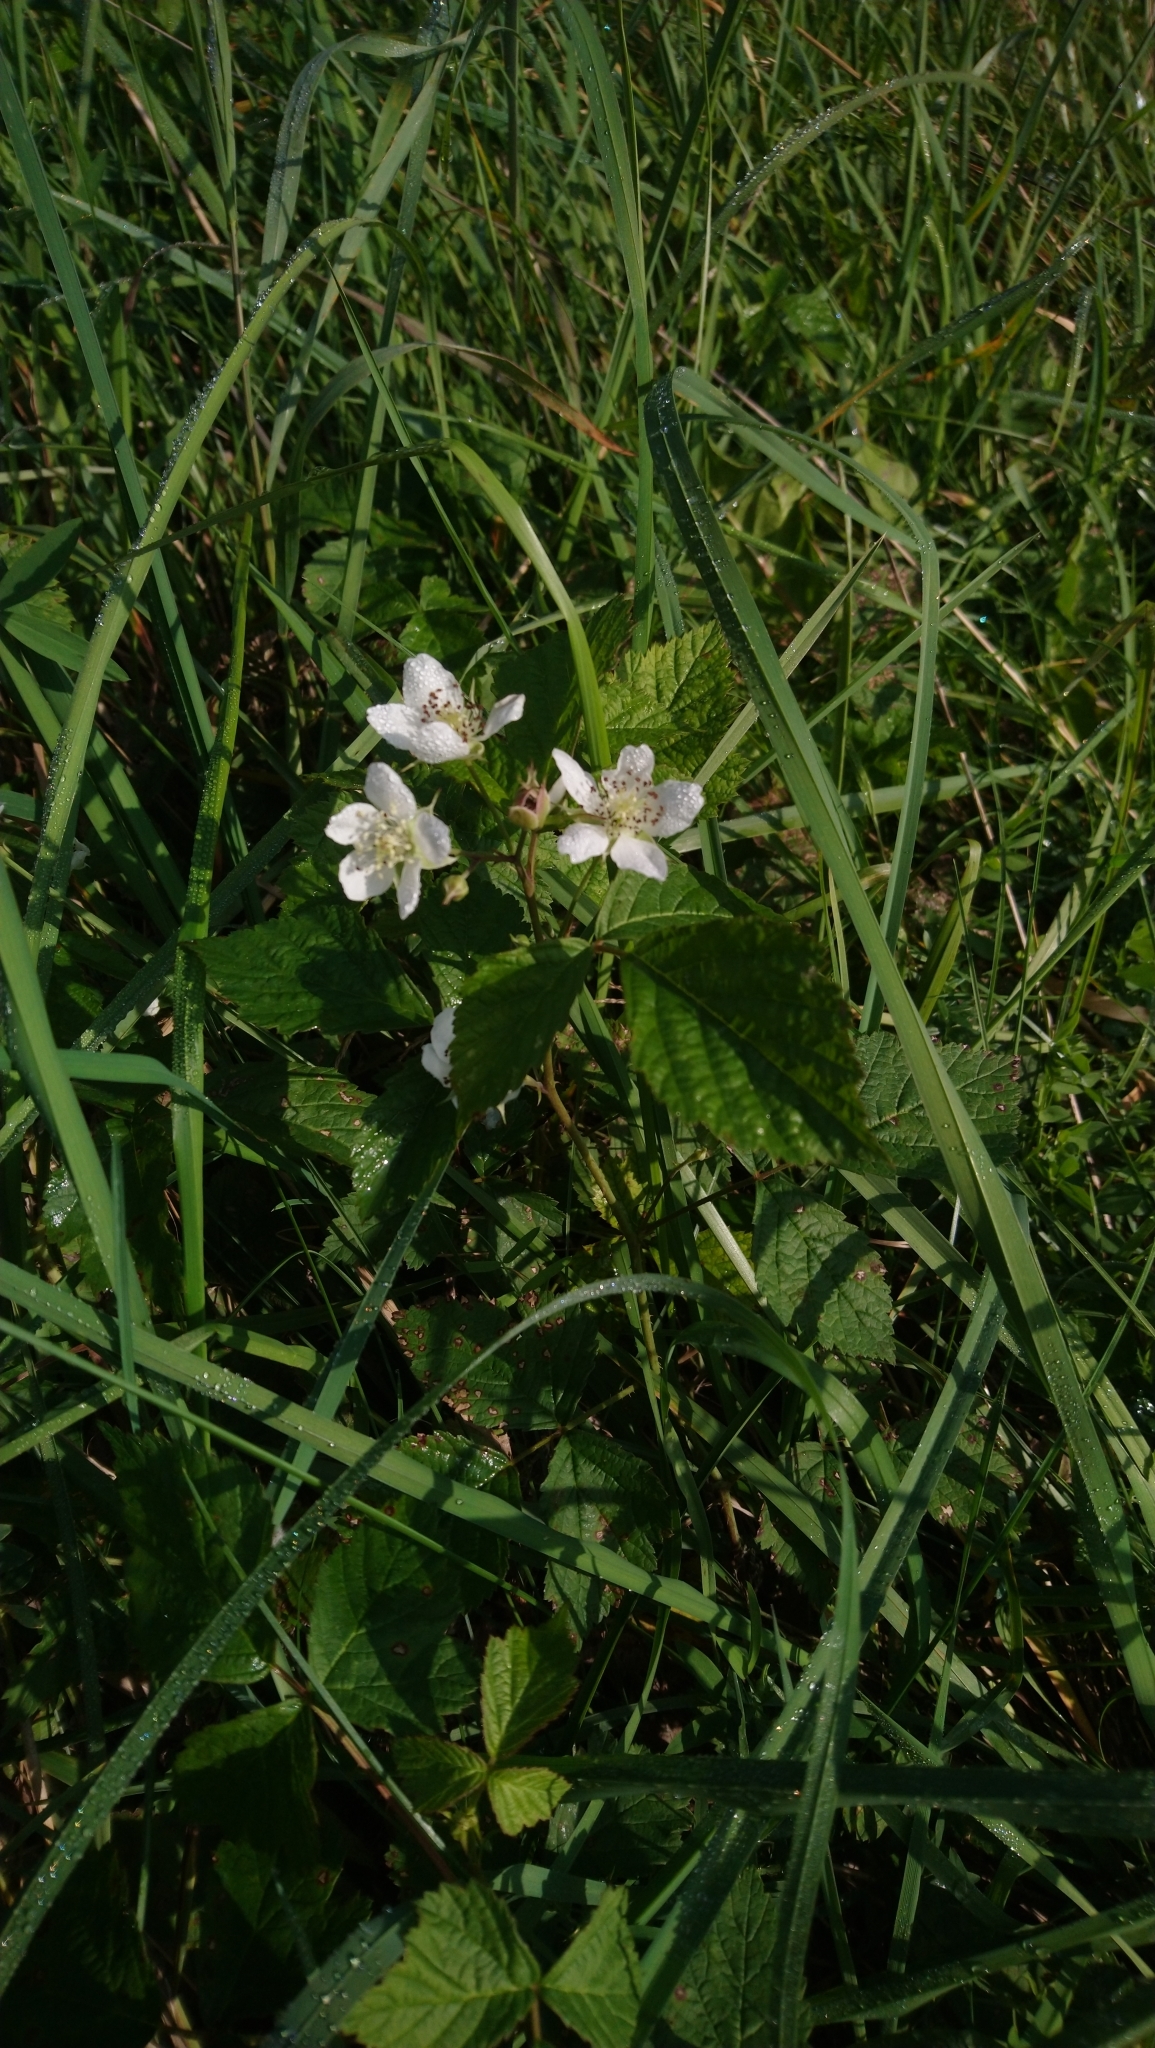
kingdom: Plantae
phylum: Tracheophyta
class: Magnoliopsida
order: Rosales
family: Rosaceae
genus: Rubus
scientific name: Rubus caesius
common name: Dewberry
